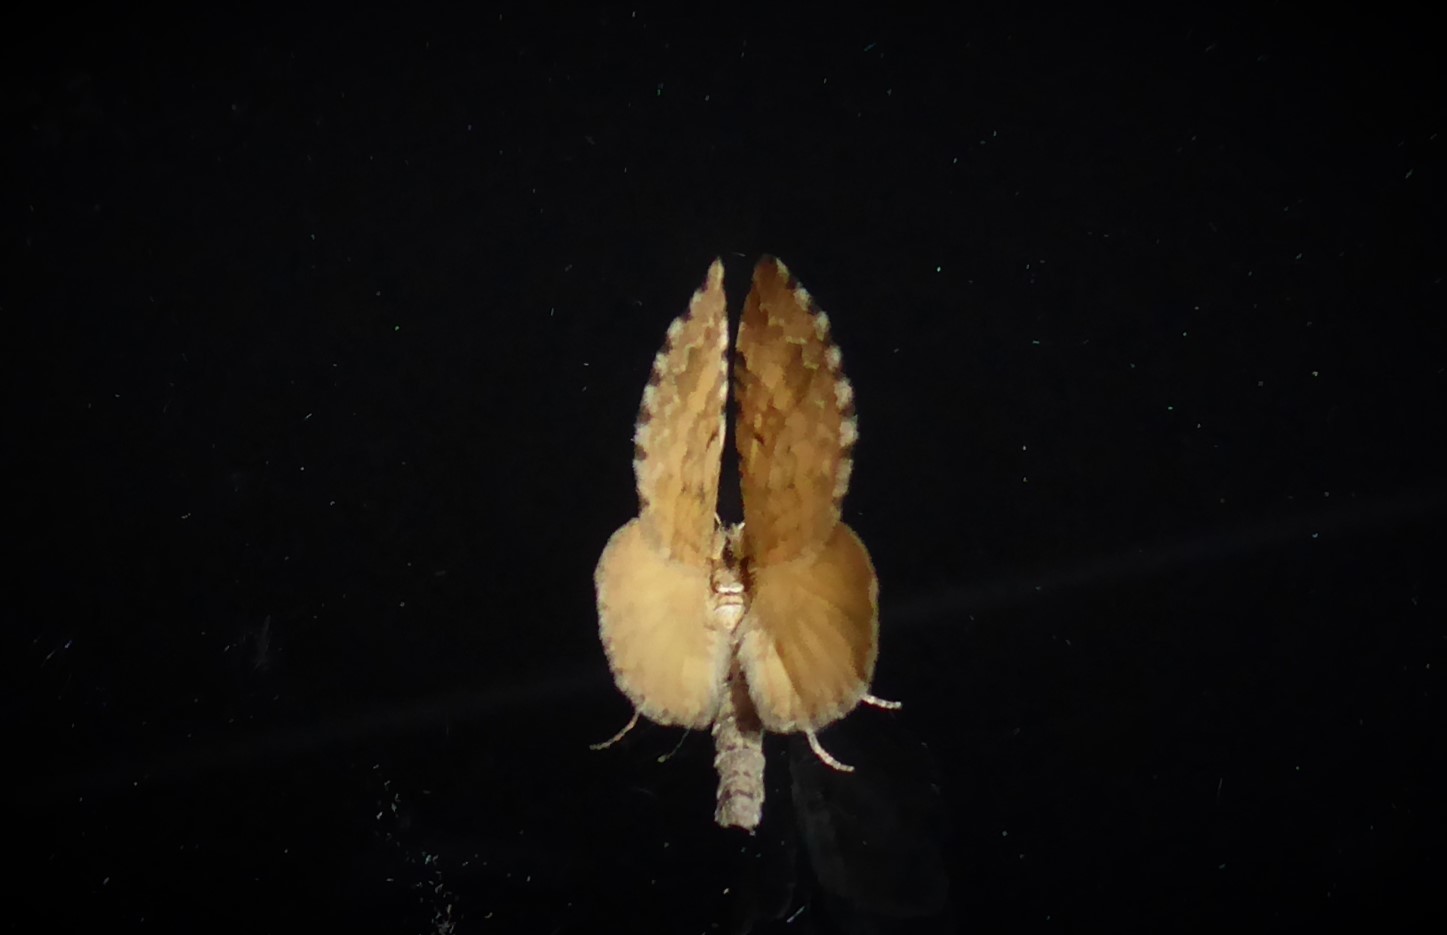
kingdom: Animalia
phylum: Arthropoda
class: Insecta
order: Lepidoptera
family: Geometridae
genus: Asaphodes
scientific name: Asaphodes aegrota
